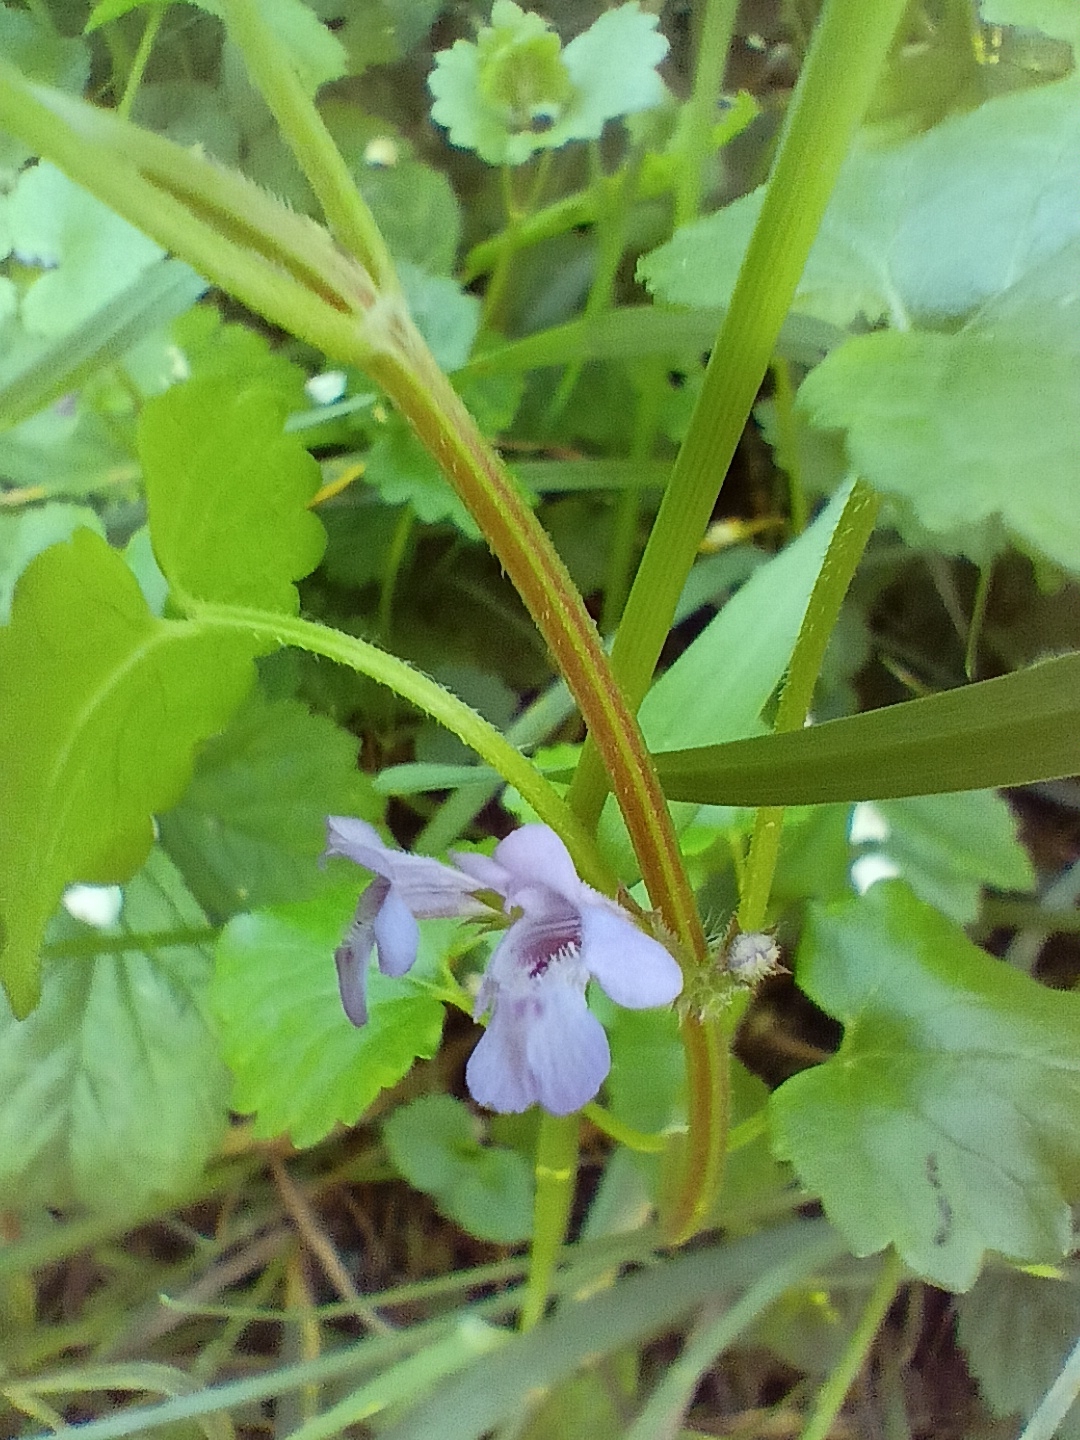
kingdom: Plantae
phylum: Tracheophyta
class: Magnoliopsida
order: Lamiales
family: Lamiaceae
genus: Glechoma
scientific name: Glechoma hederacea
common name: Ground ivy
